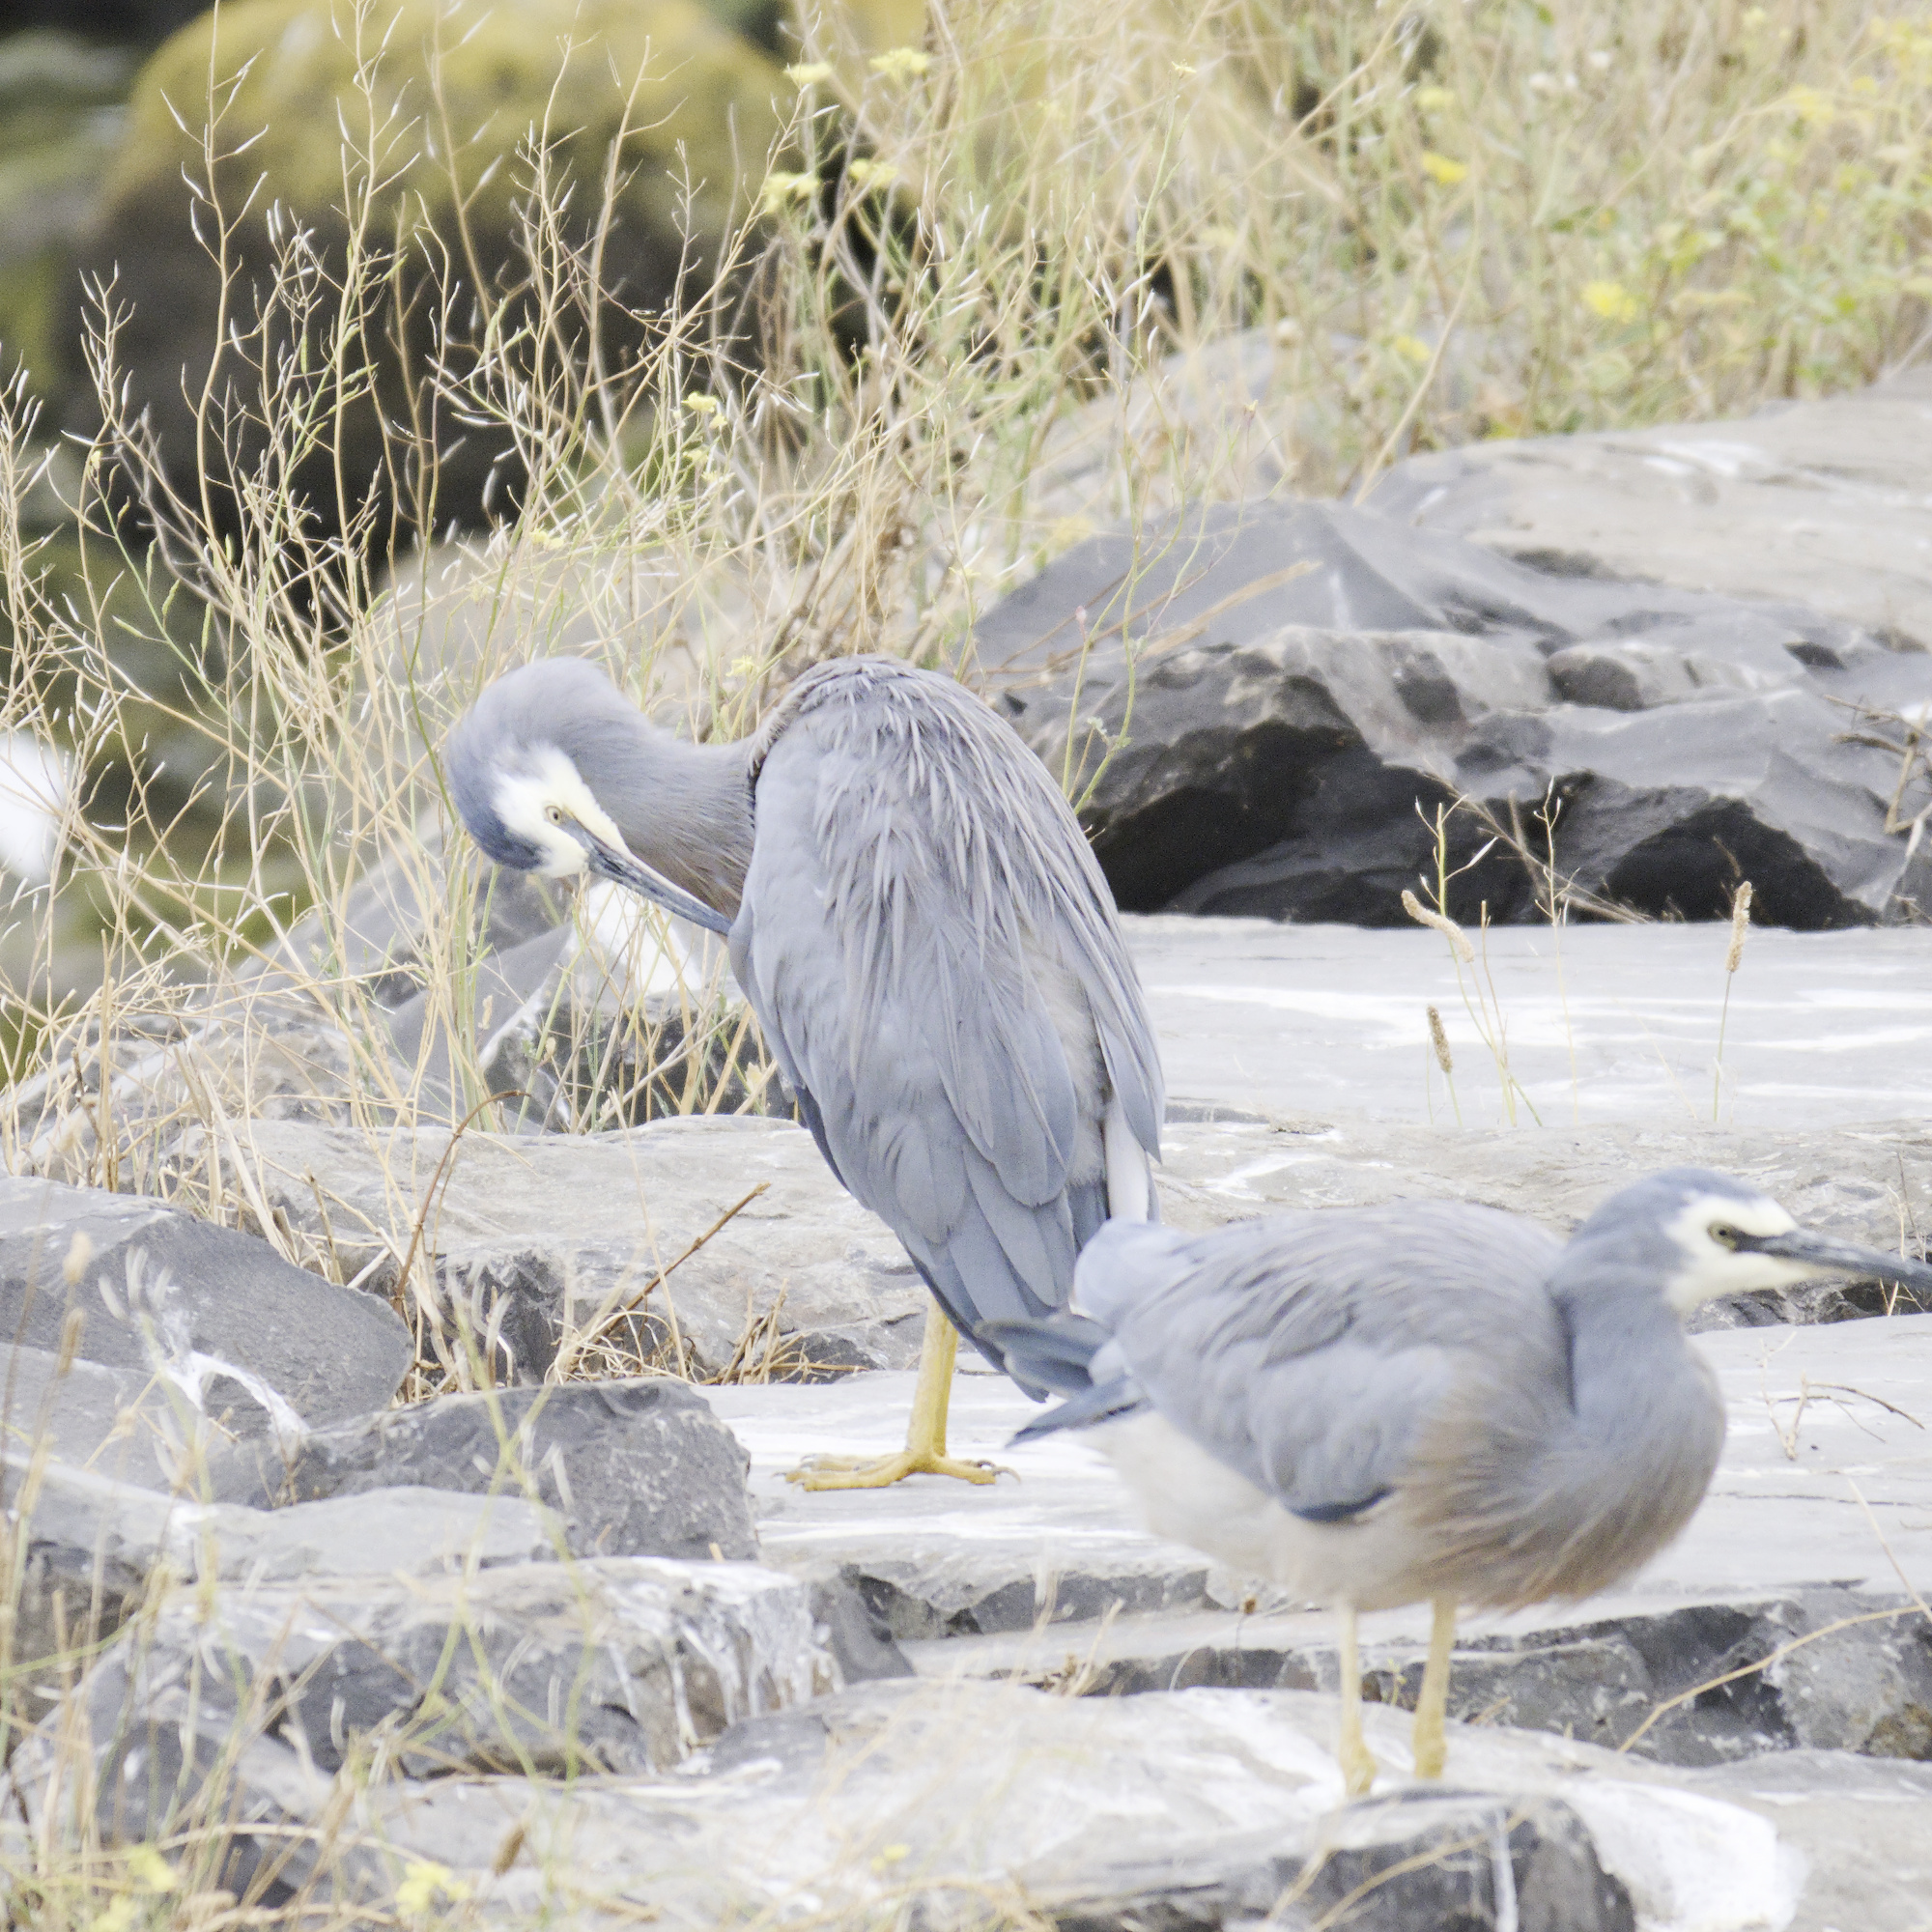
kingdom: Animalia
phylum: Chordata
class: Aves
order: Pelecaniformes
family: Ardeidae
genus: Egretta
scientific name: Egretta novaehollandiae
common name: White-faced heron
